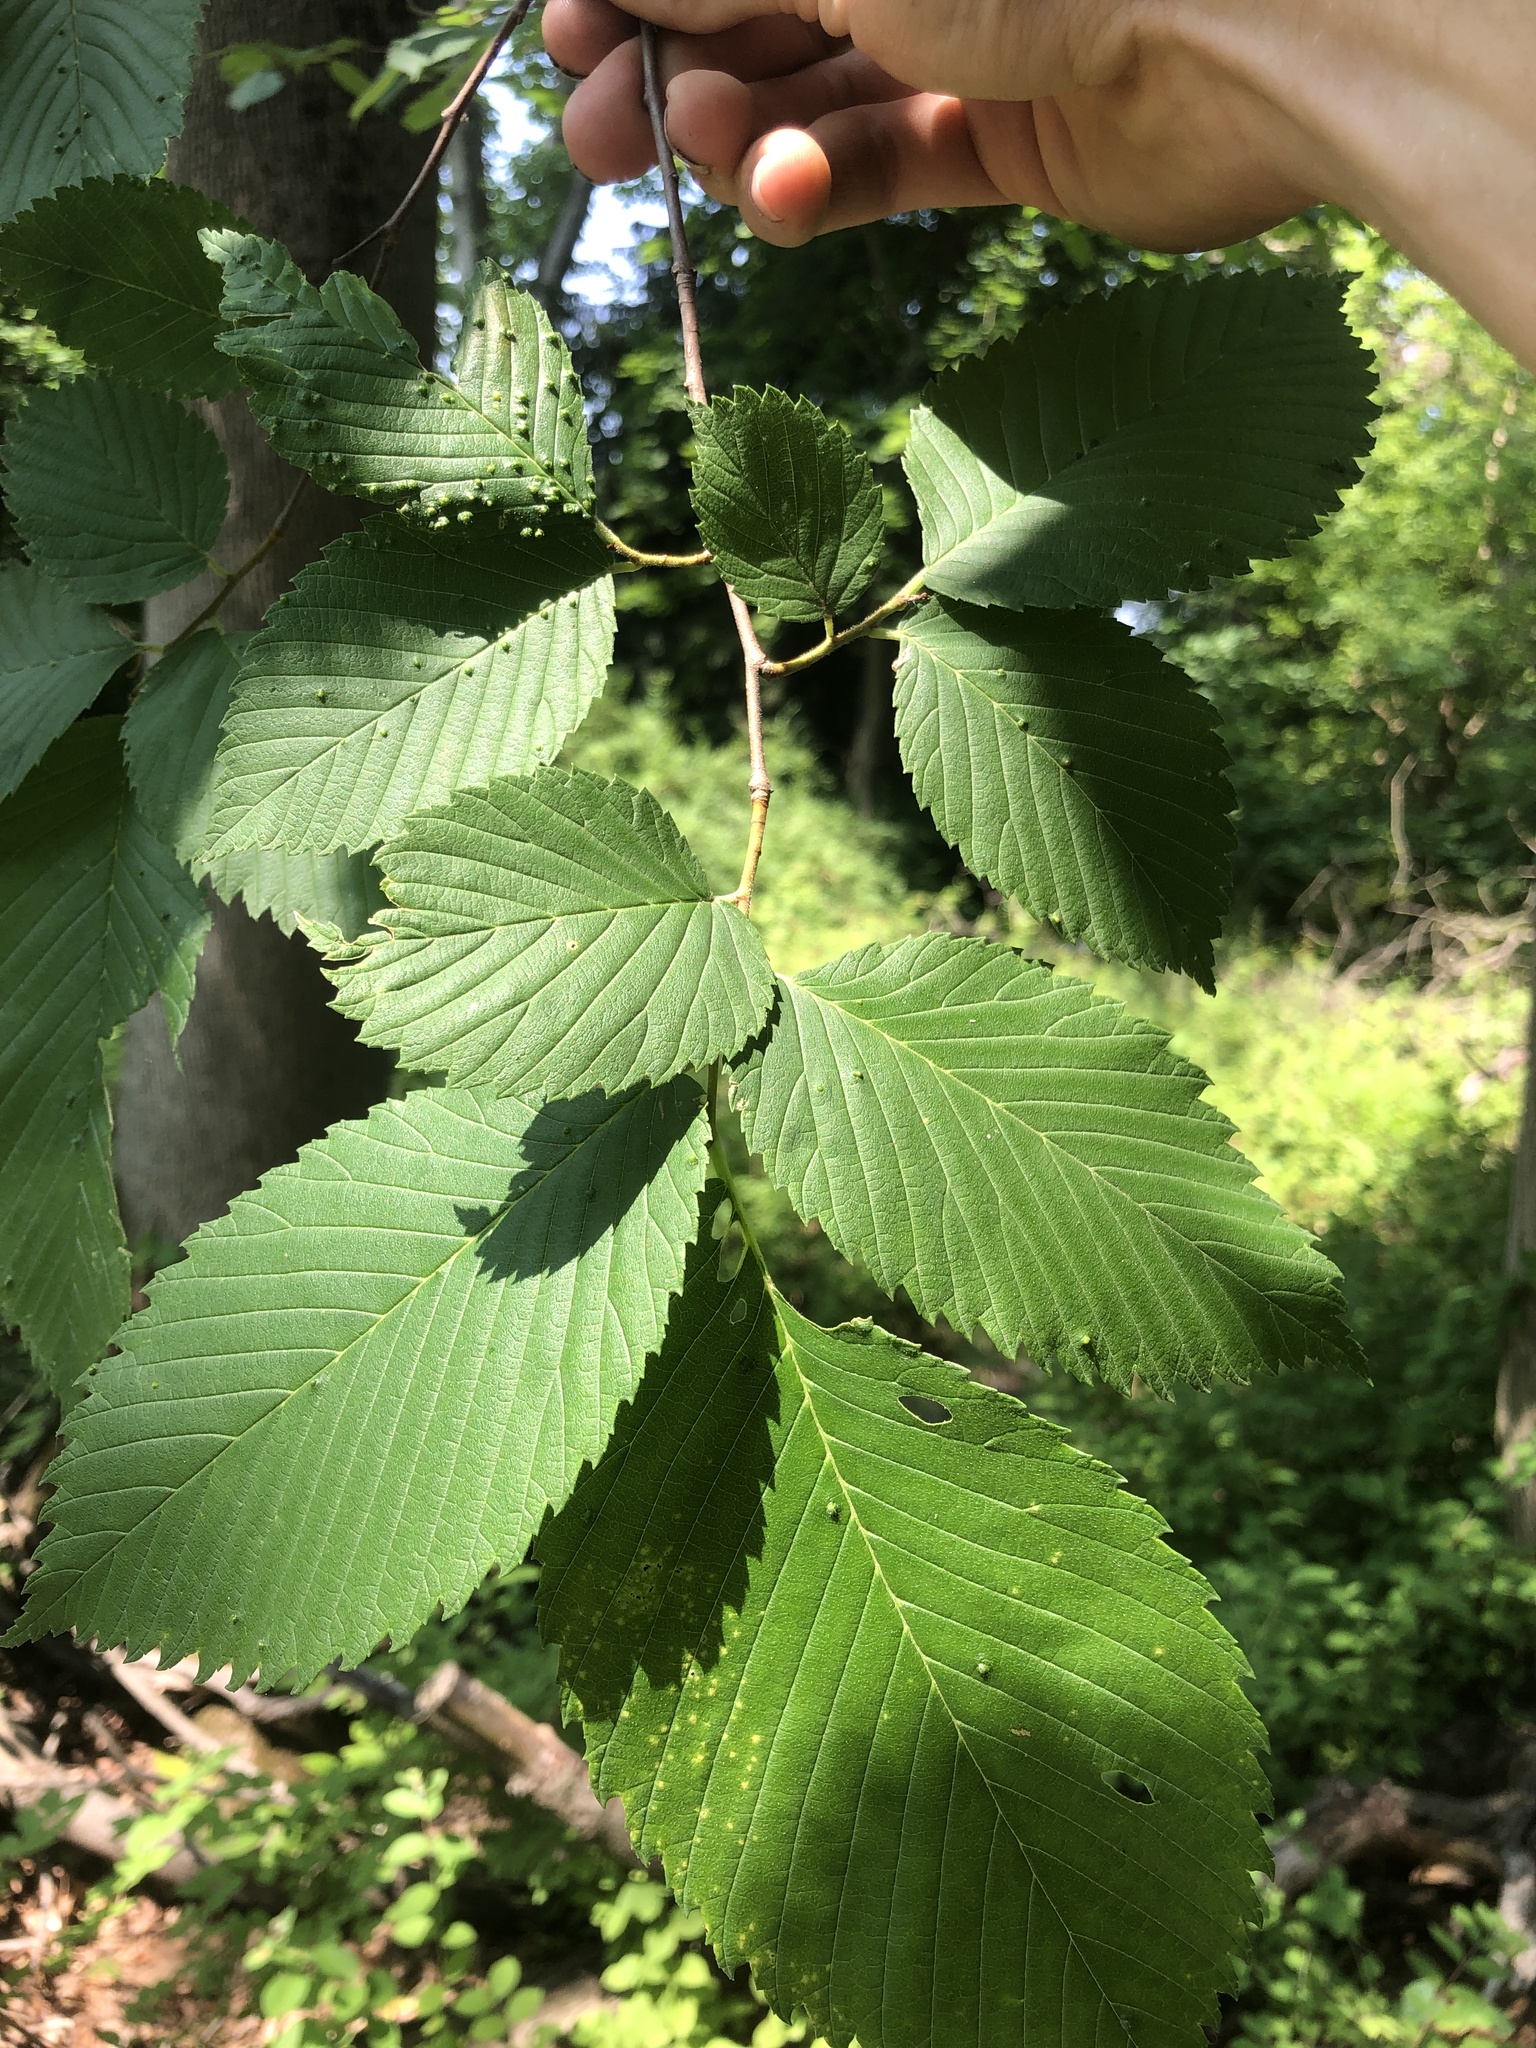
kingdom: Plantae
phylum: Tracheophyta
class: Magnoliopsida
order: Rosales
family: Ulmaceae
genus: Ulmus
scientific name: Ulmus americana
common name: American elm
